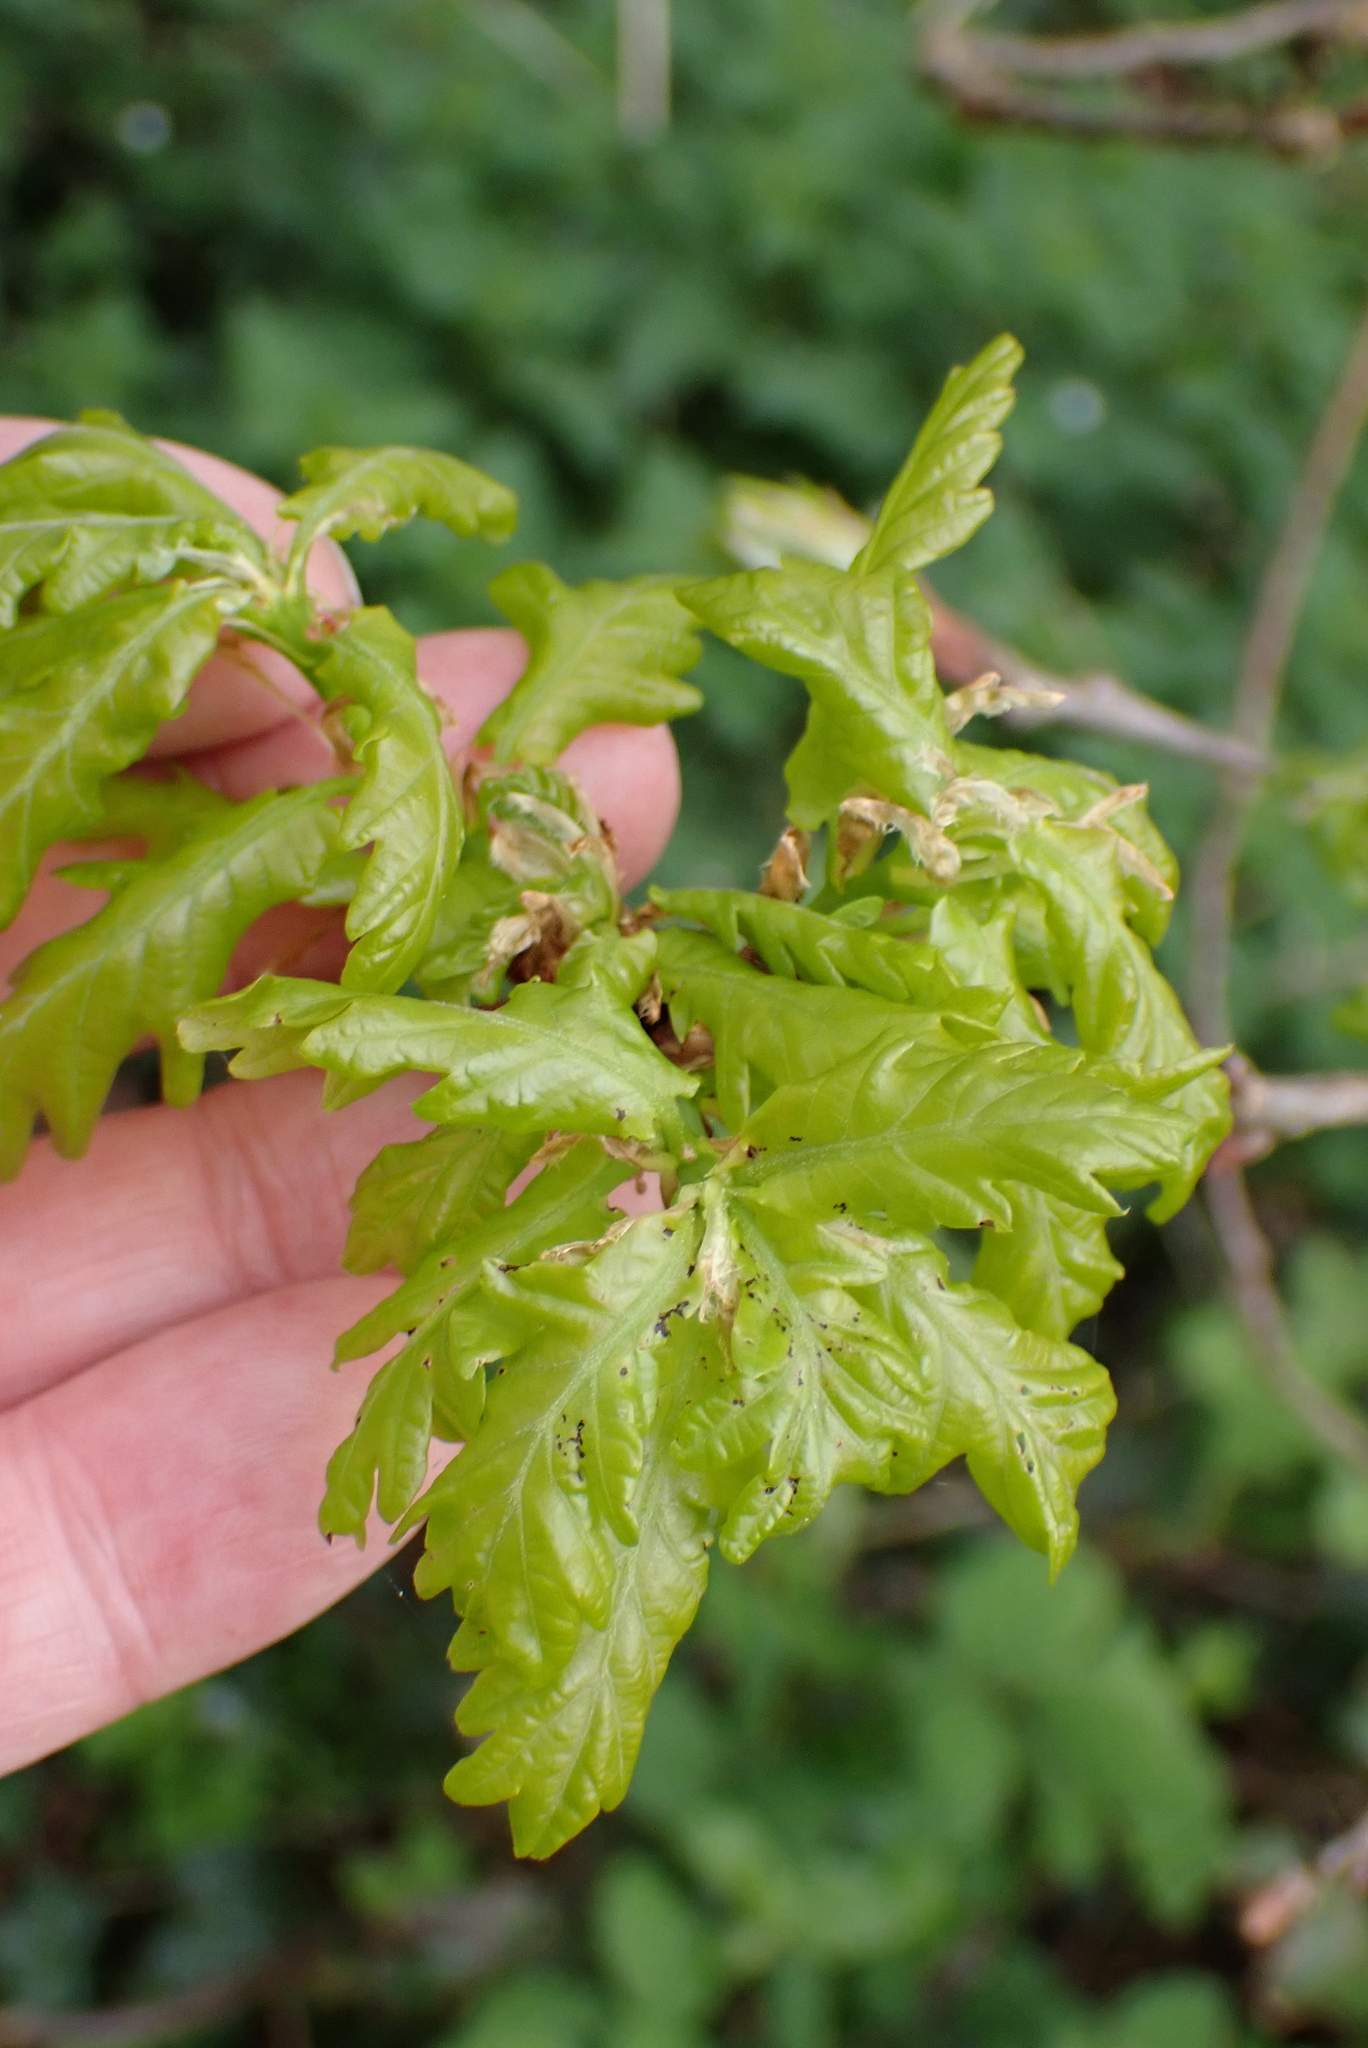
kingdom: Plantae
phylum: Tracheophyta
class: Magnoliopsida
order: Fagales
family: Fagaceae
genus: Quercus
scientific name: Quercus robur
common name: Pedunculate oak
